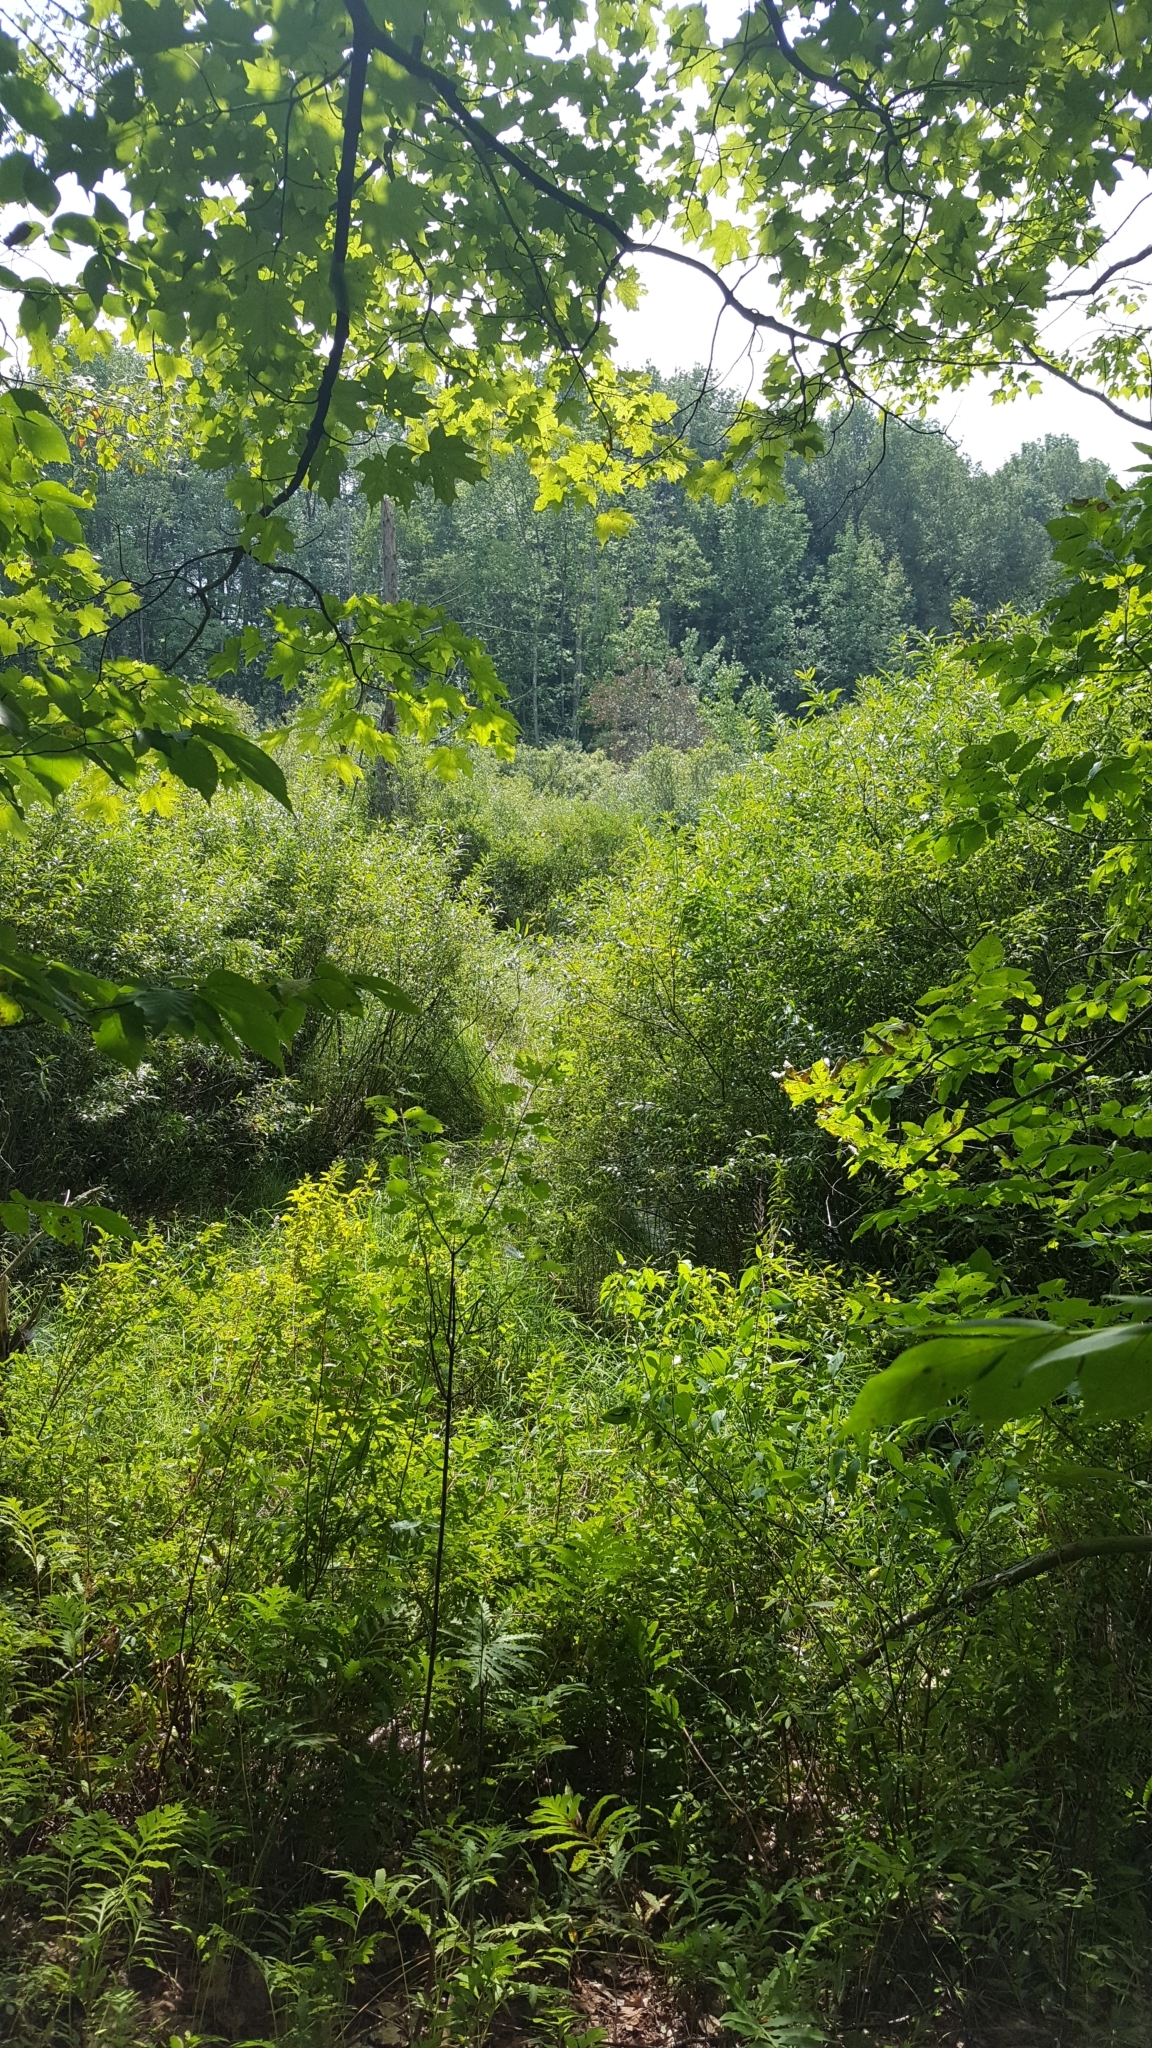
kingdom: Plantae
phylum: Tracheophyta
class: Magnoliopsida
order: Sapindales
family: Sapindaceae
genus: Acer
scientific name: Acer saccharum
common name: Sugar maple
